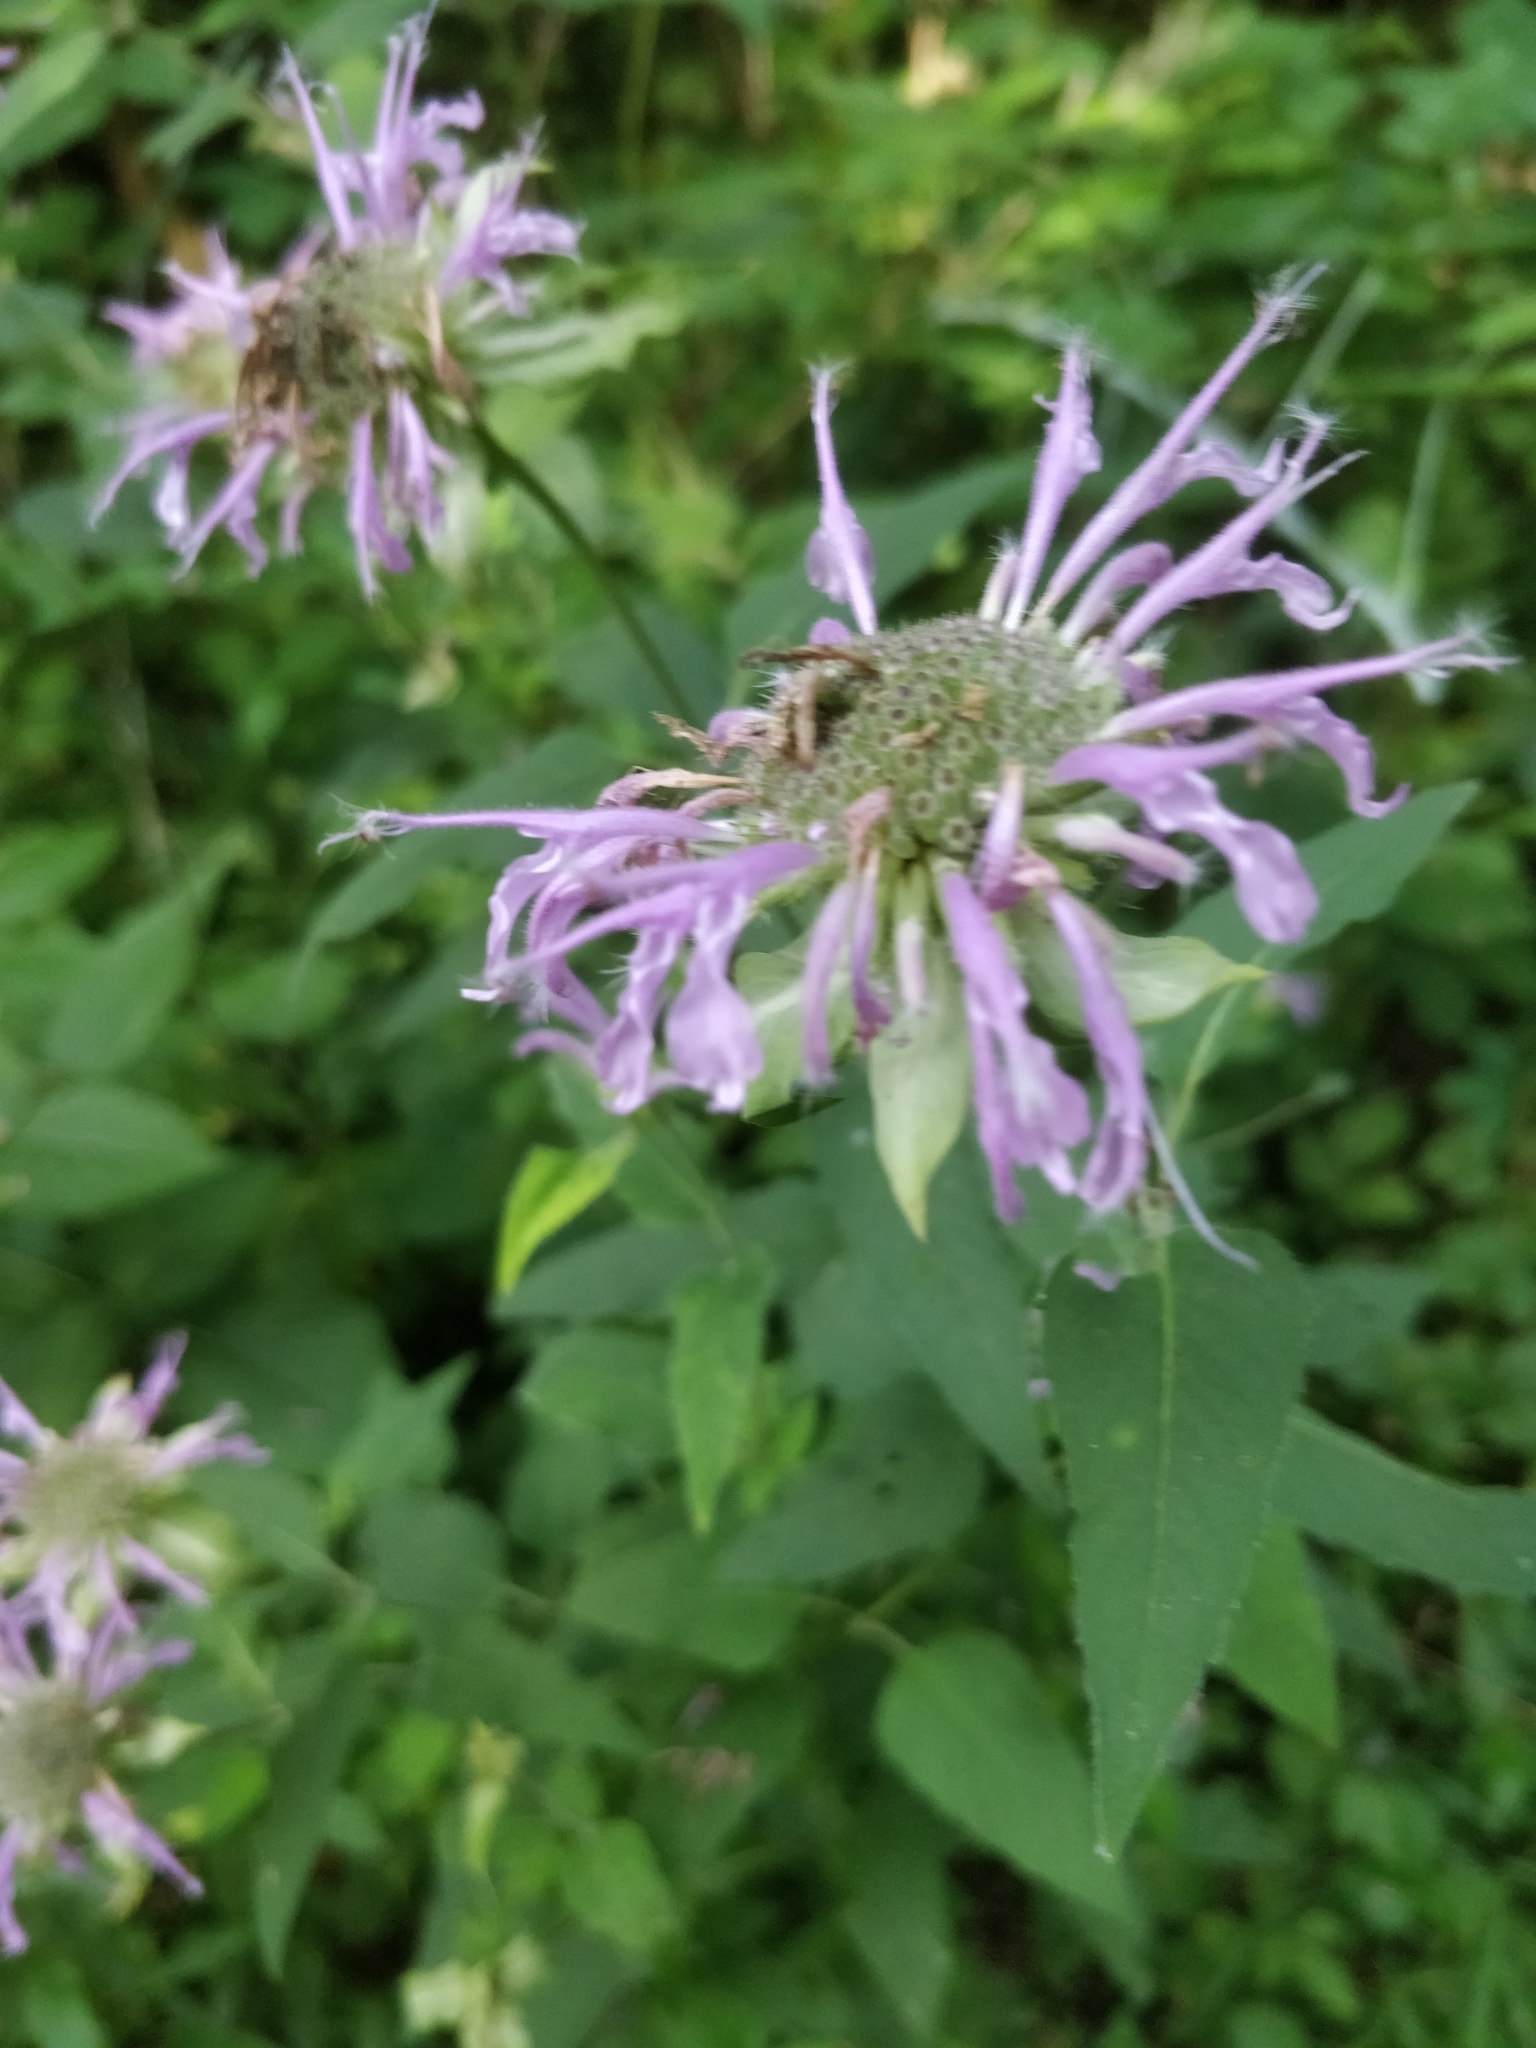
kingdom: Plantae
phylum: Tracheophyta
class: Magnoliopsida
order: Lamiales
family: Lamiaceae
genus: Monarda
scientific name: Monarda fistulosa
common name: Purple beebalm
